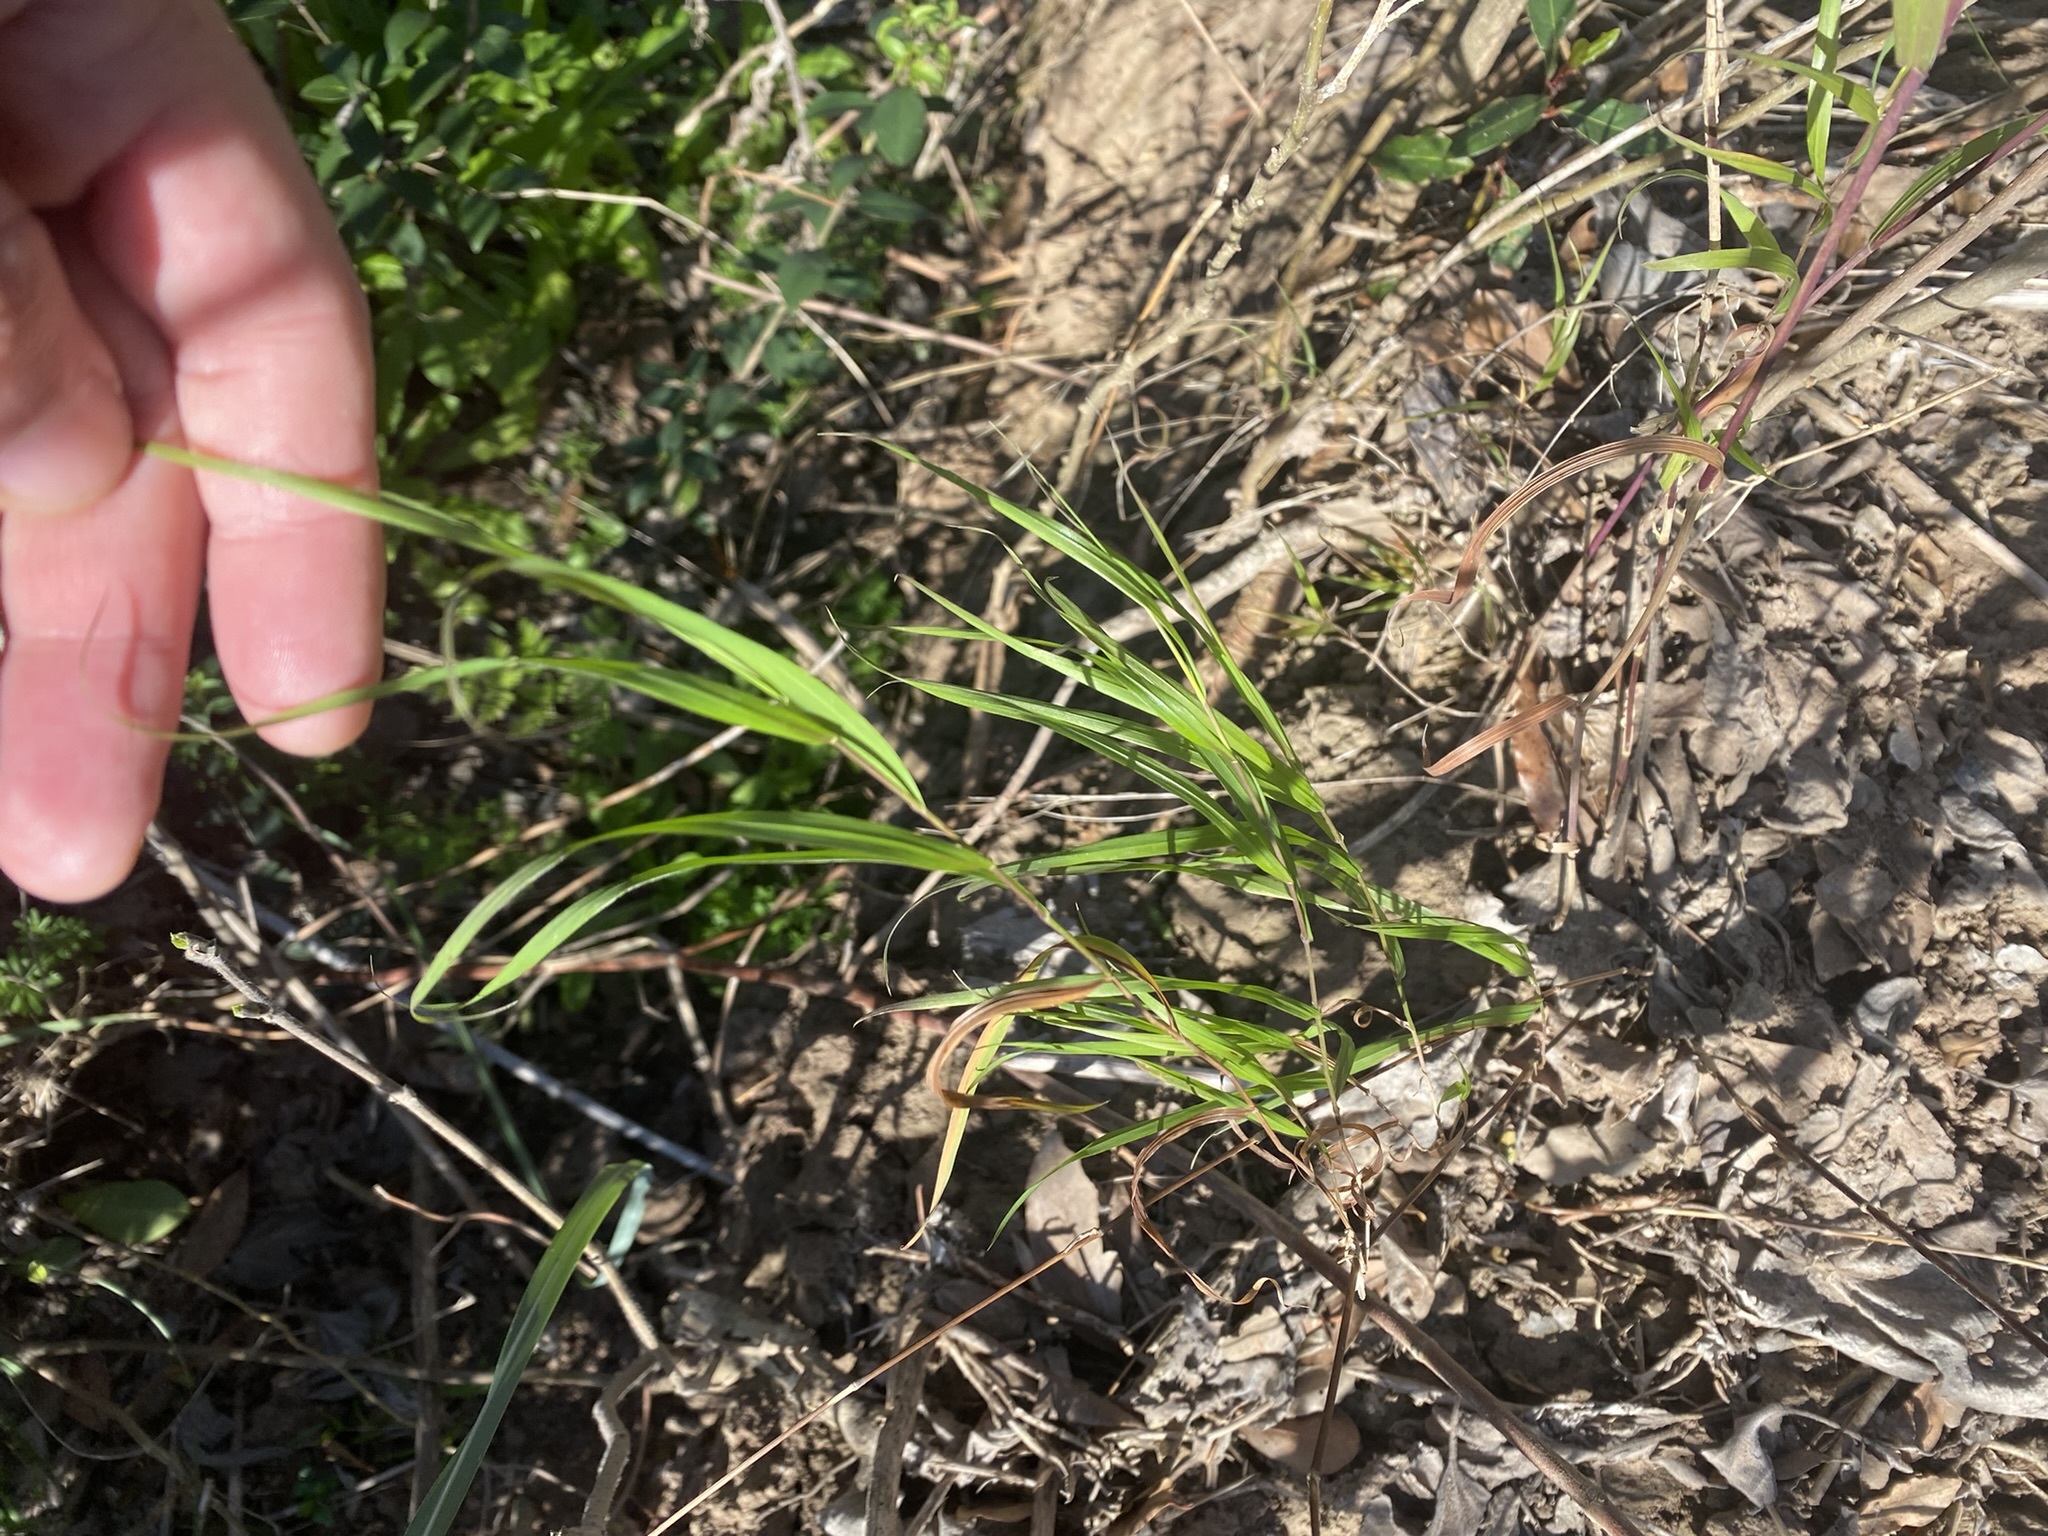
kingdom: Plantae
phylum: Tracheophyta
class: Liliopsida
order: Poales
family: Poaceae
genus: Melica
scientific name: Melica sarmentosa
